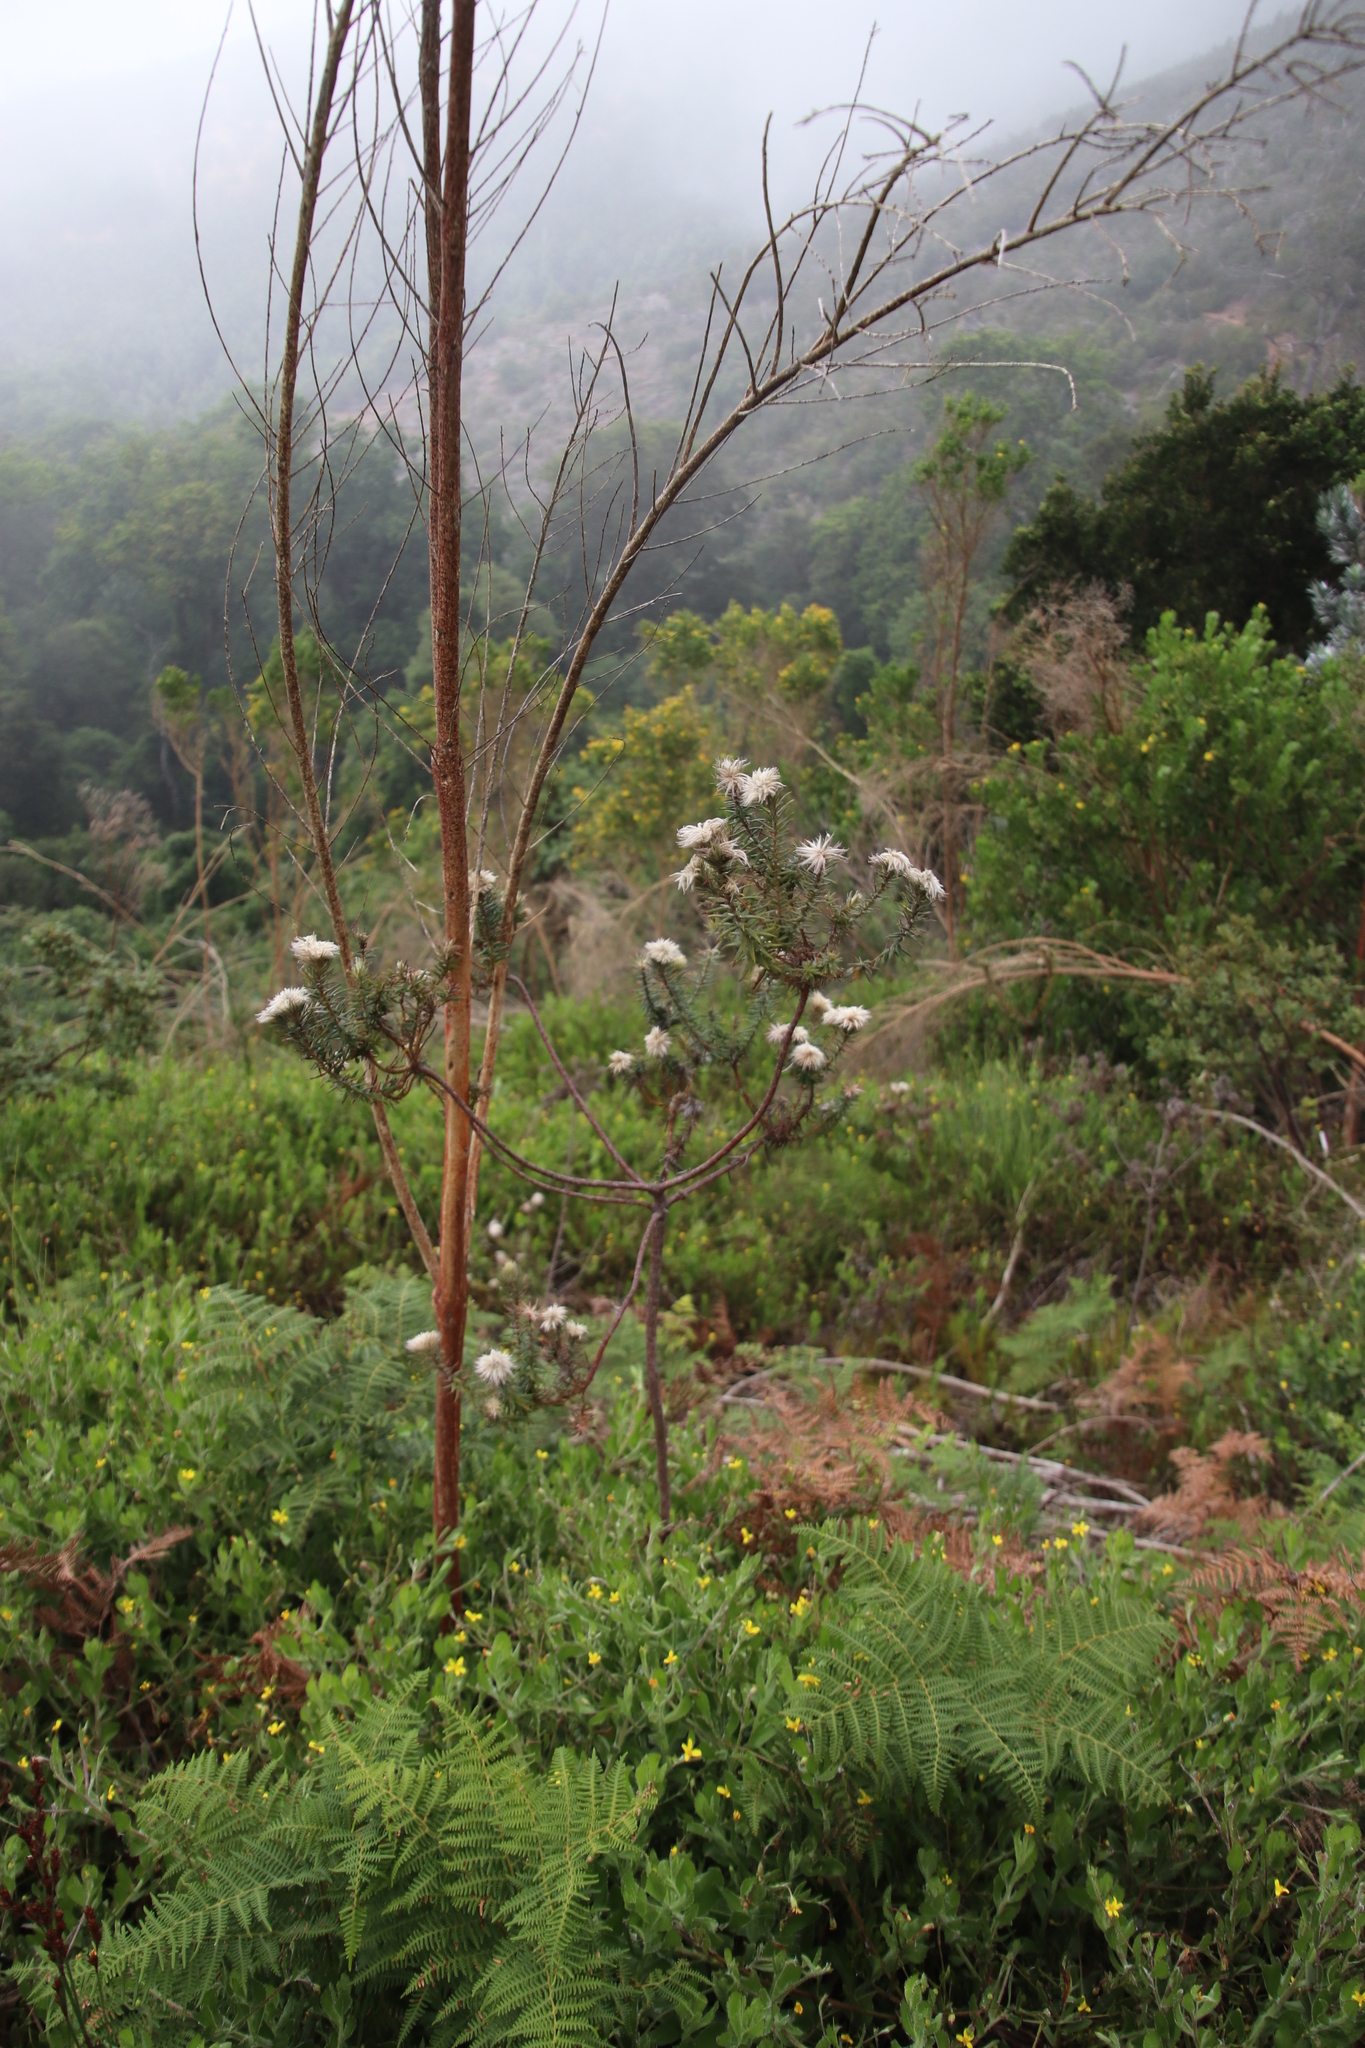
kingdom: Plantae
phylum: Tracheophyta
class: Magnoliopsida
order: Rosales
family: Rhamnaceae
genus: Phylica
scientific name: Phylica pubescens
